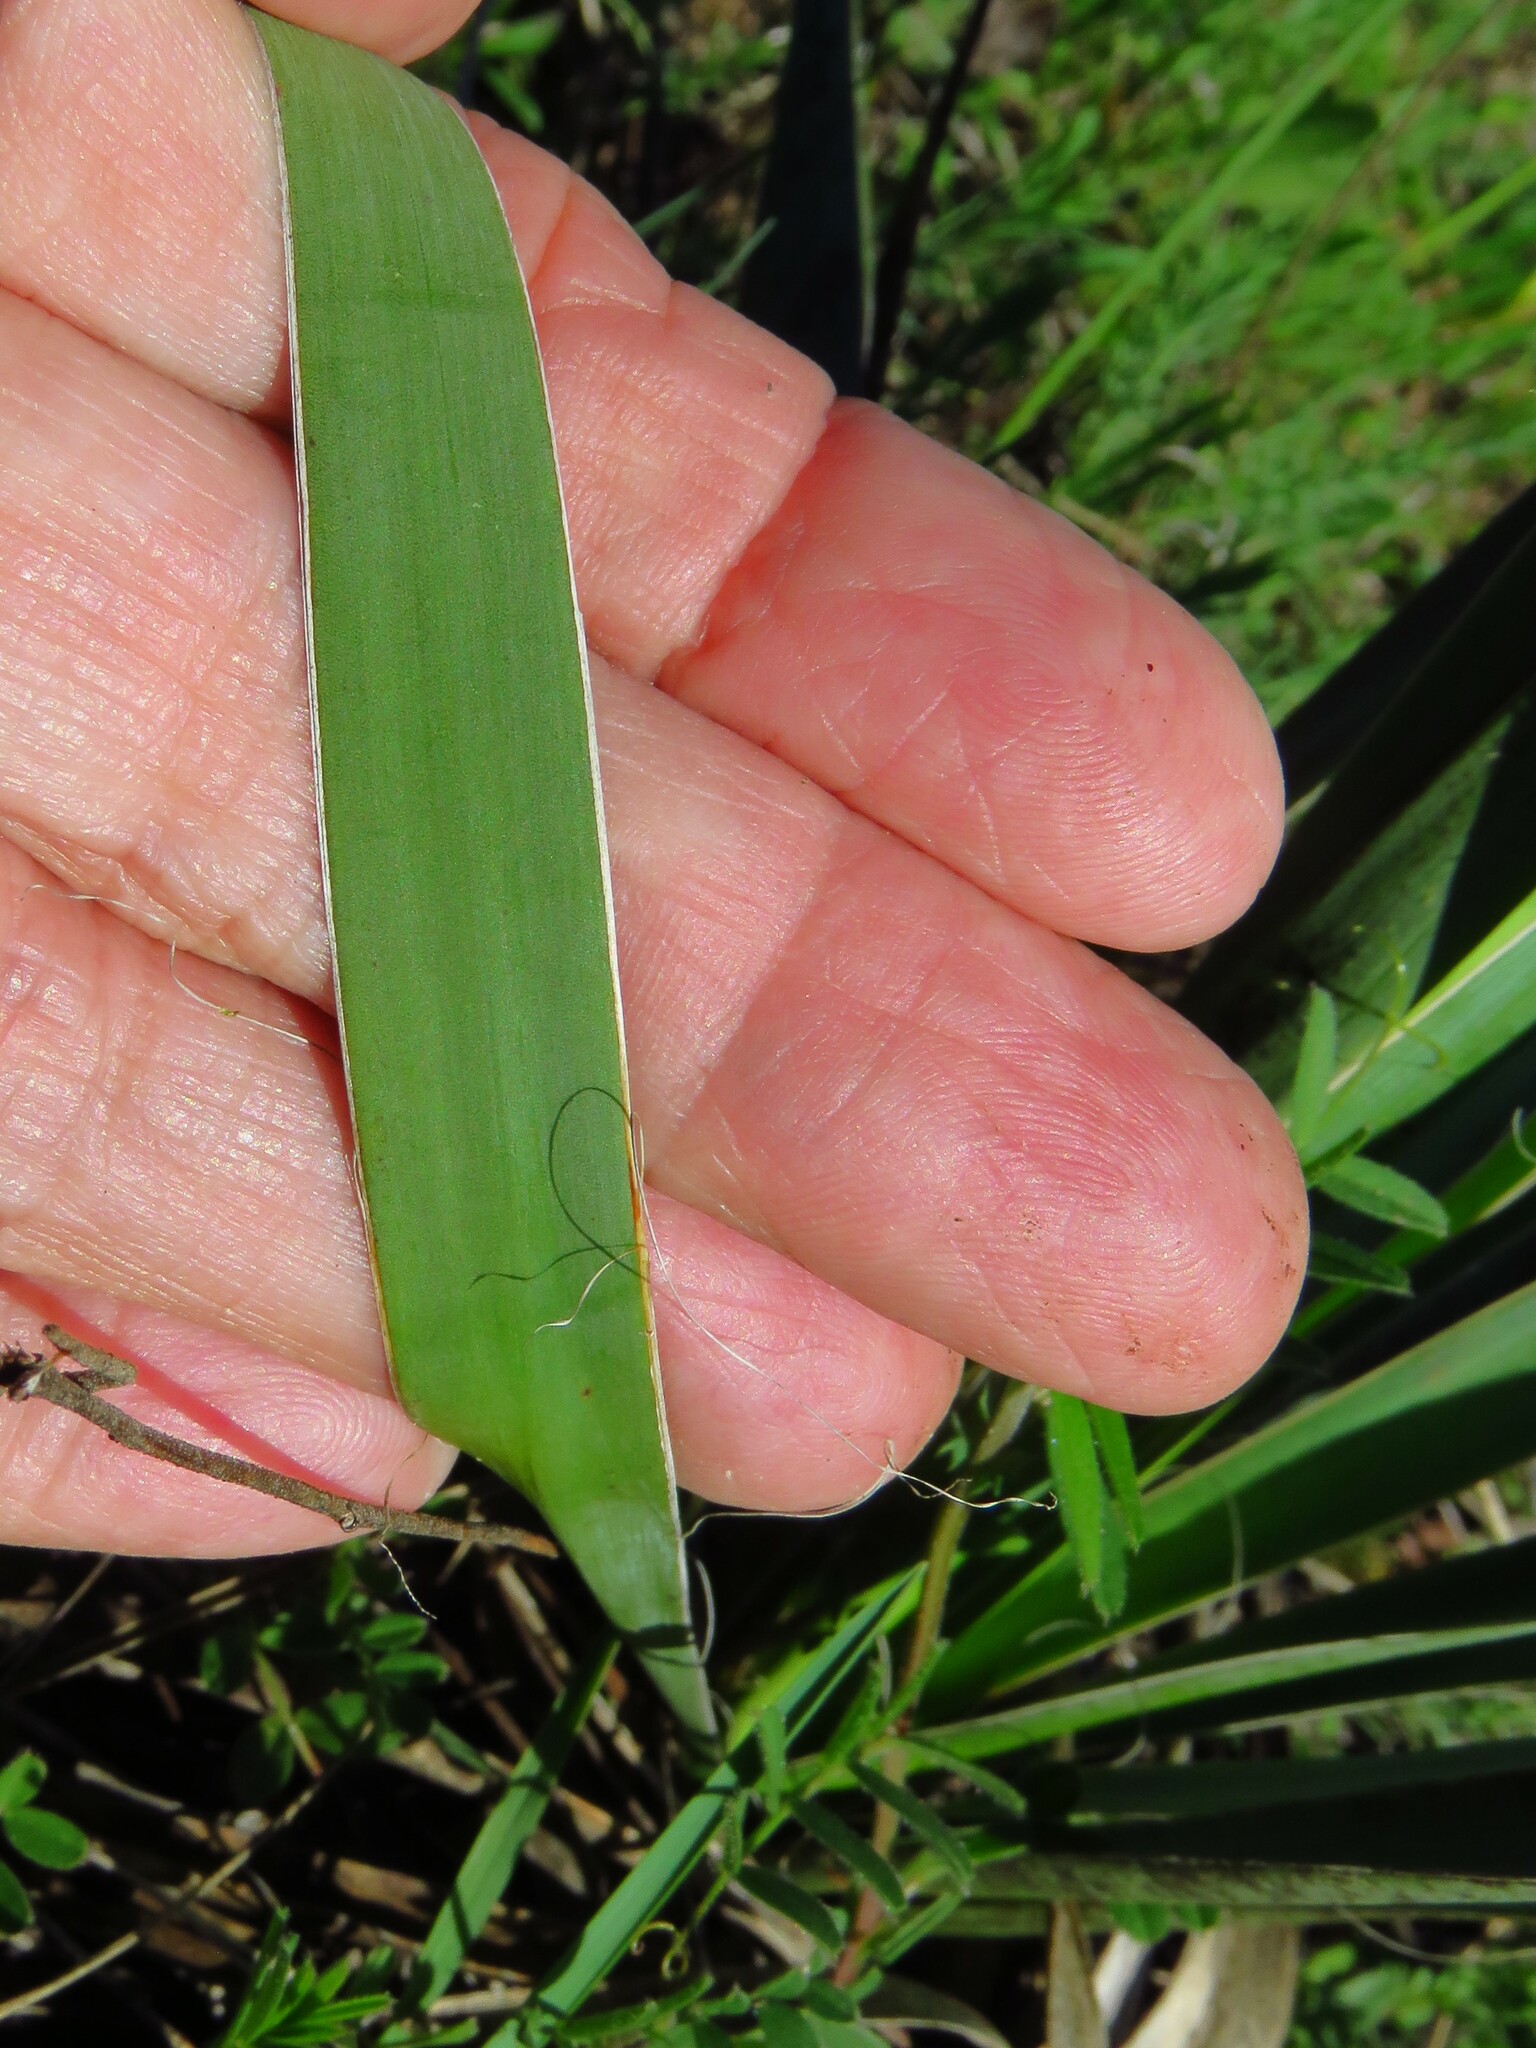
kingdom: Plantae
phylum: Tracheophyta
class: Liliopsida
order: Asparagales
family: Asparagaceae
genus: Yucca
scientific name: Yucca arkansana
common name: Arkansas yucca
